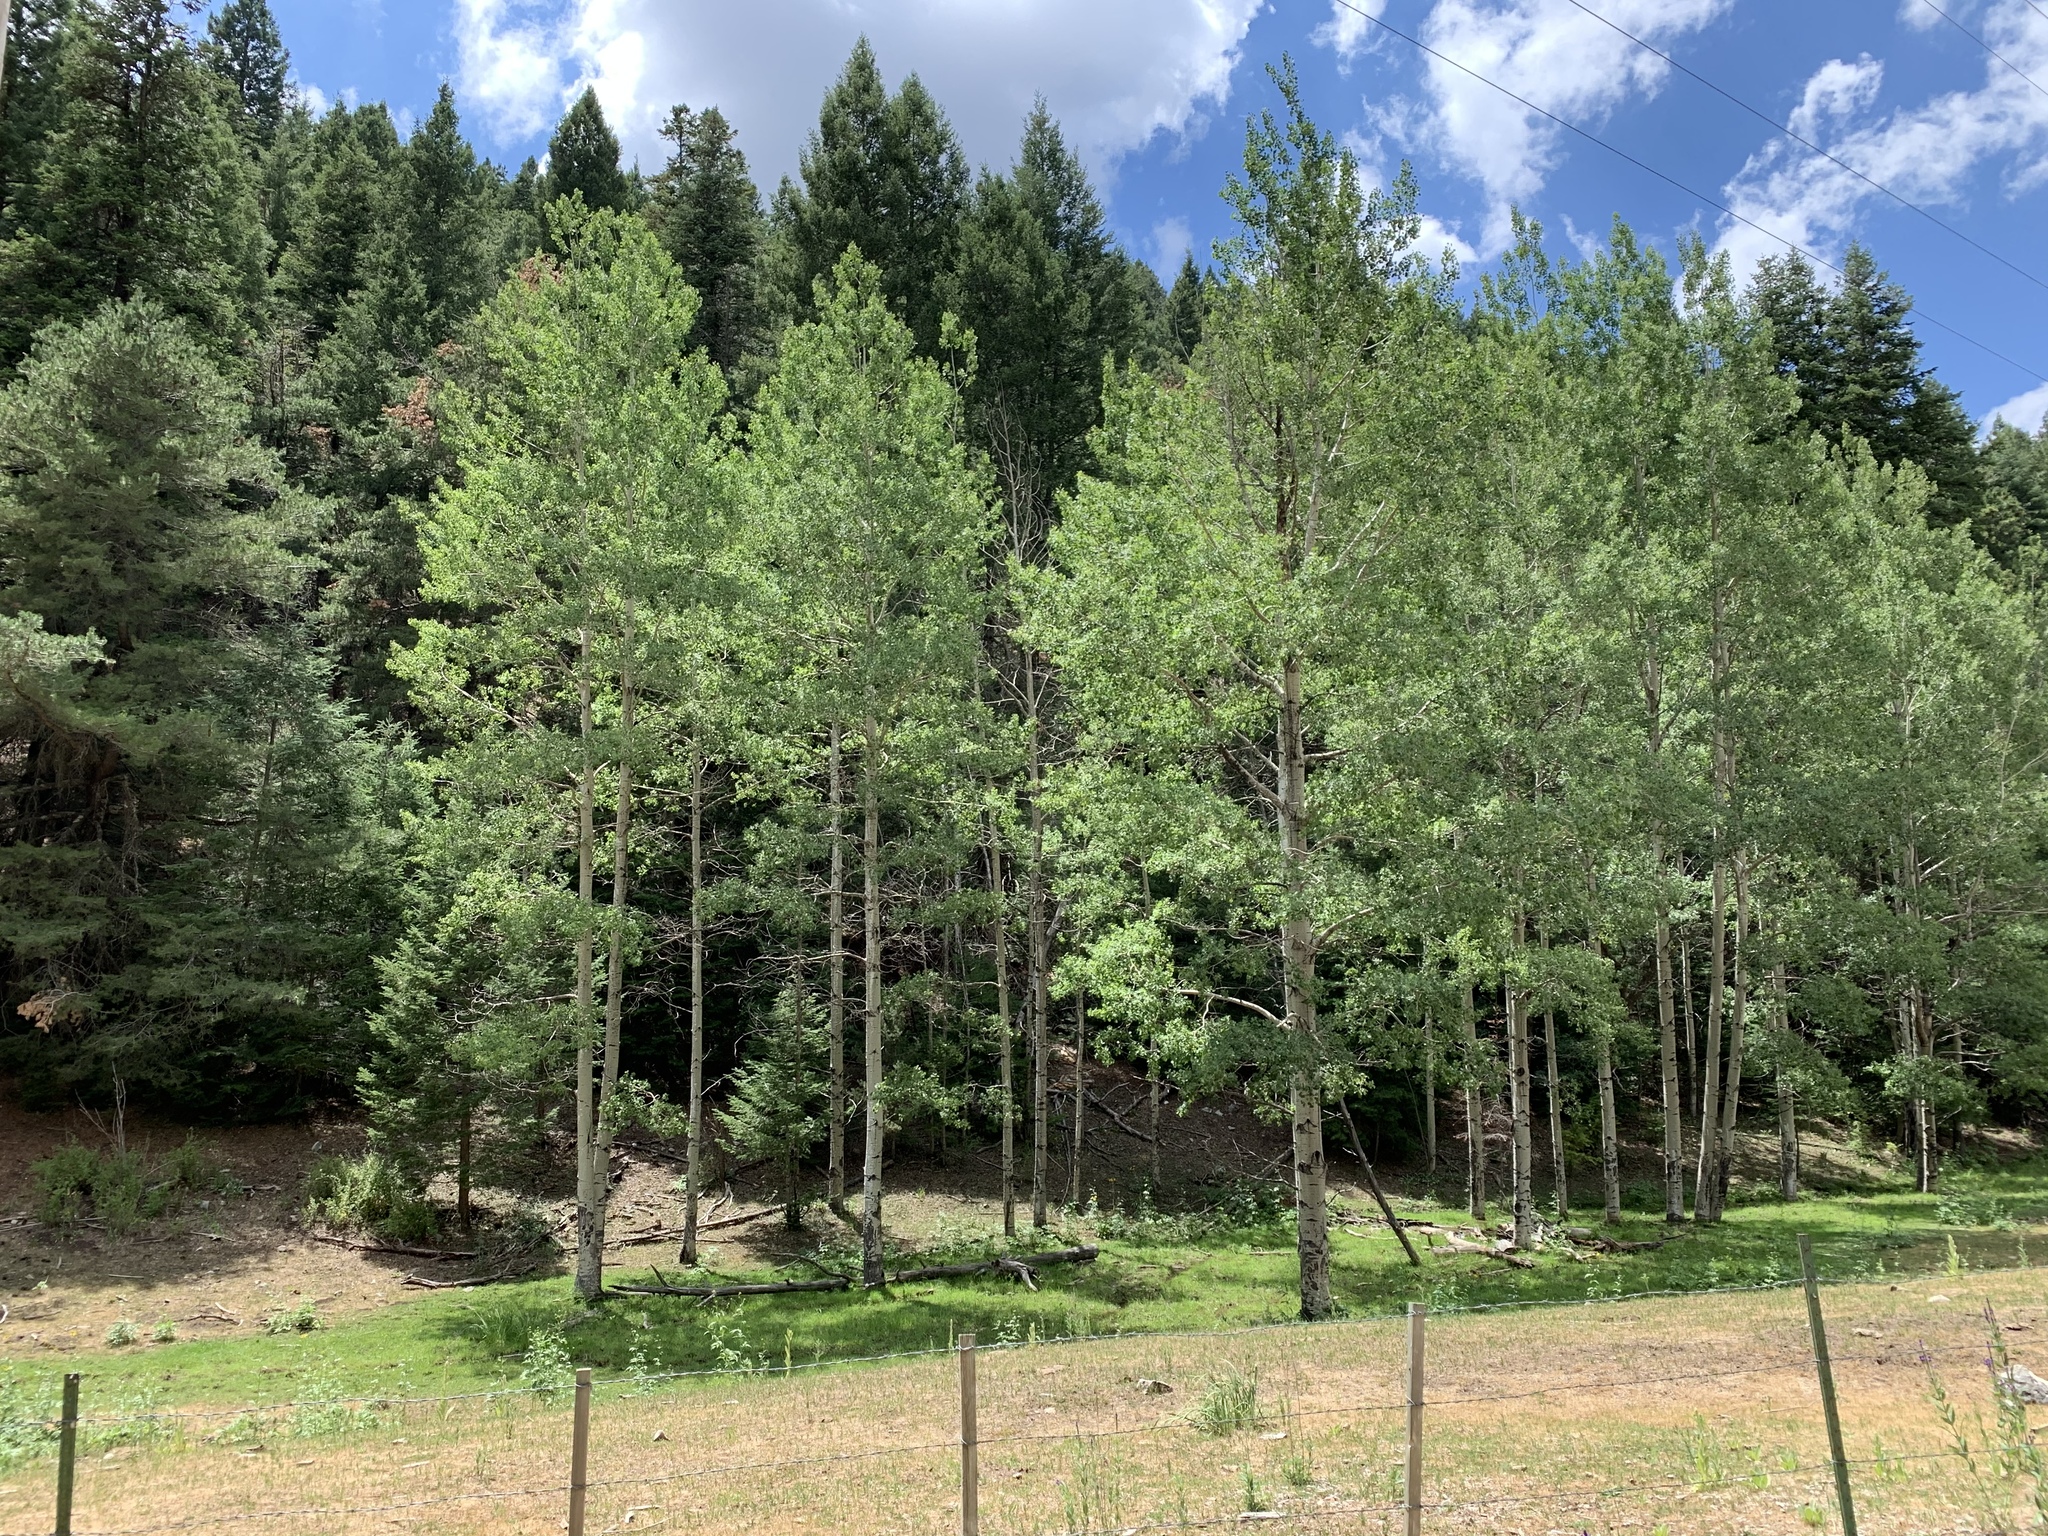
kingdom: Plantae
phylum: Tracheophyta
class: Magnoliopsida
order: Malpighiales
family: Salicaceae
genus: Populus
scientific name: Populus tremuloides
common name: Quaking aspen
